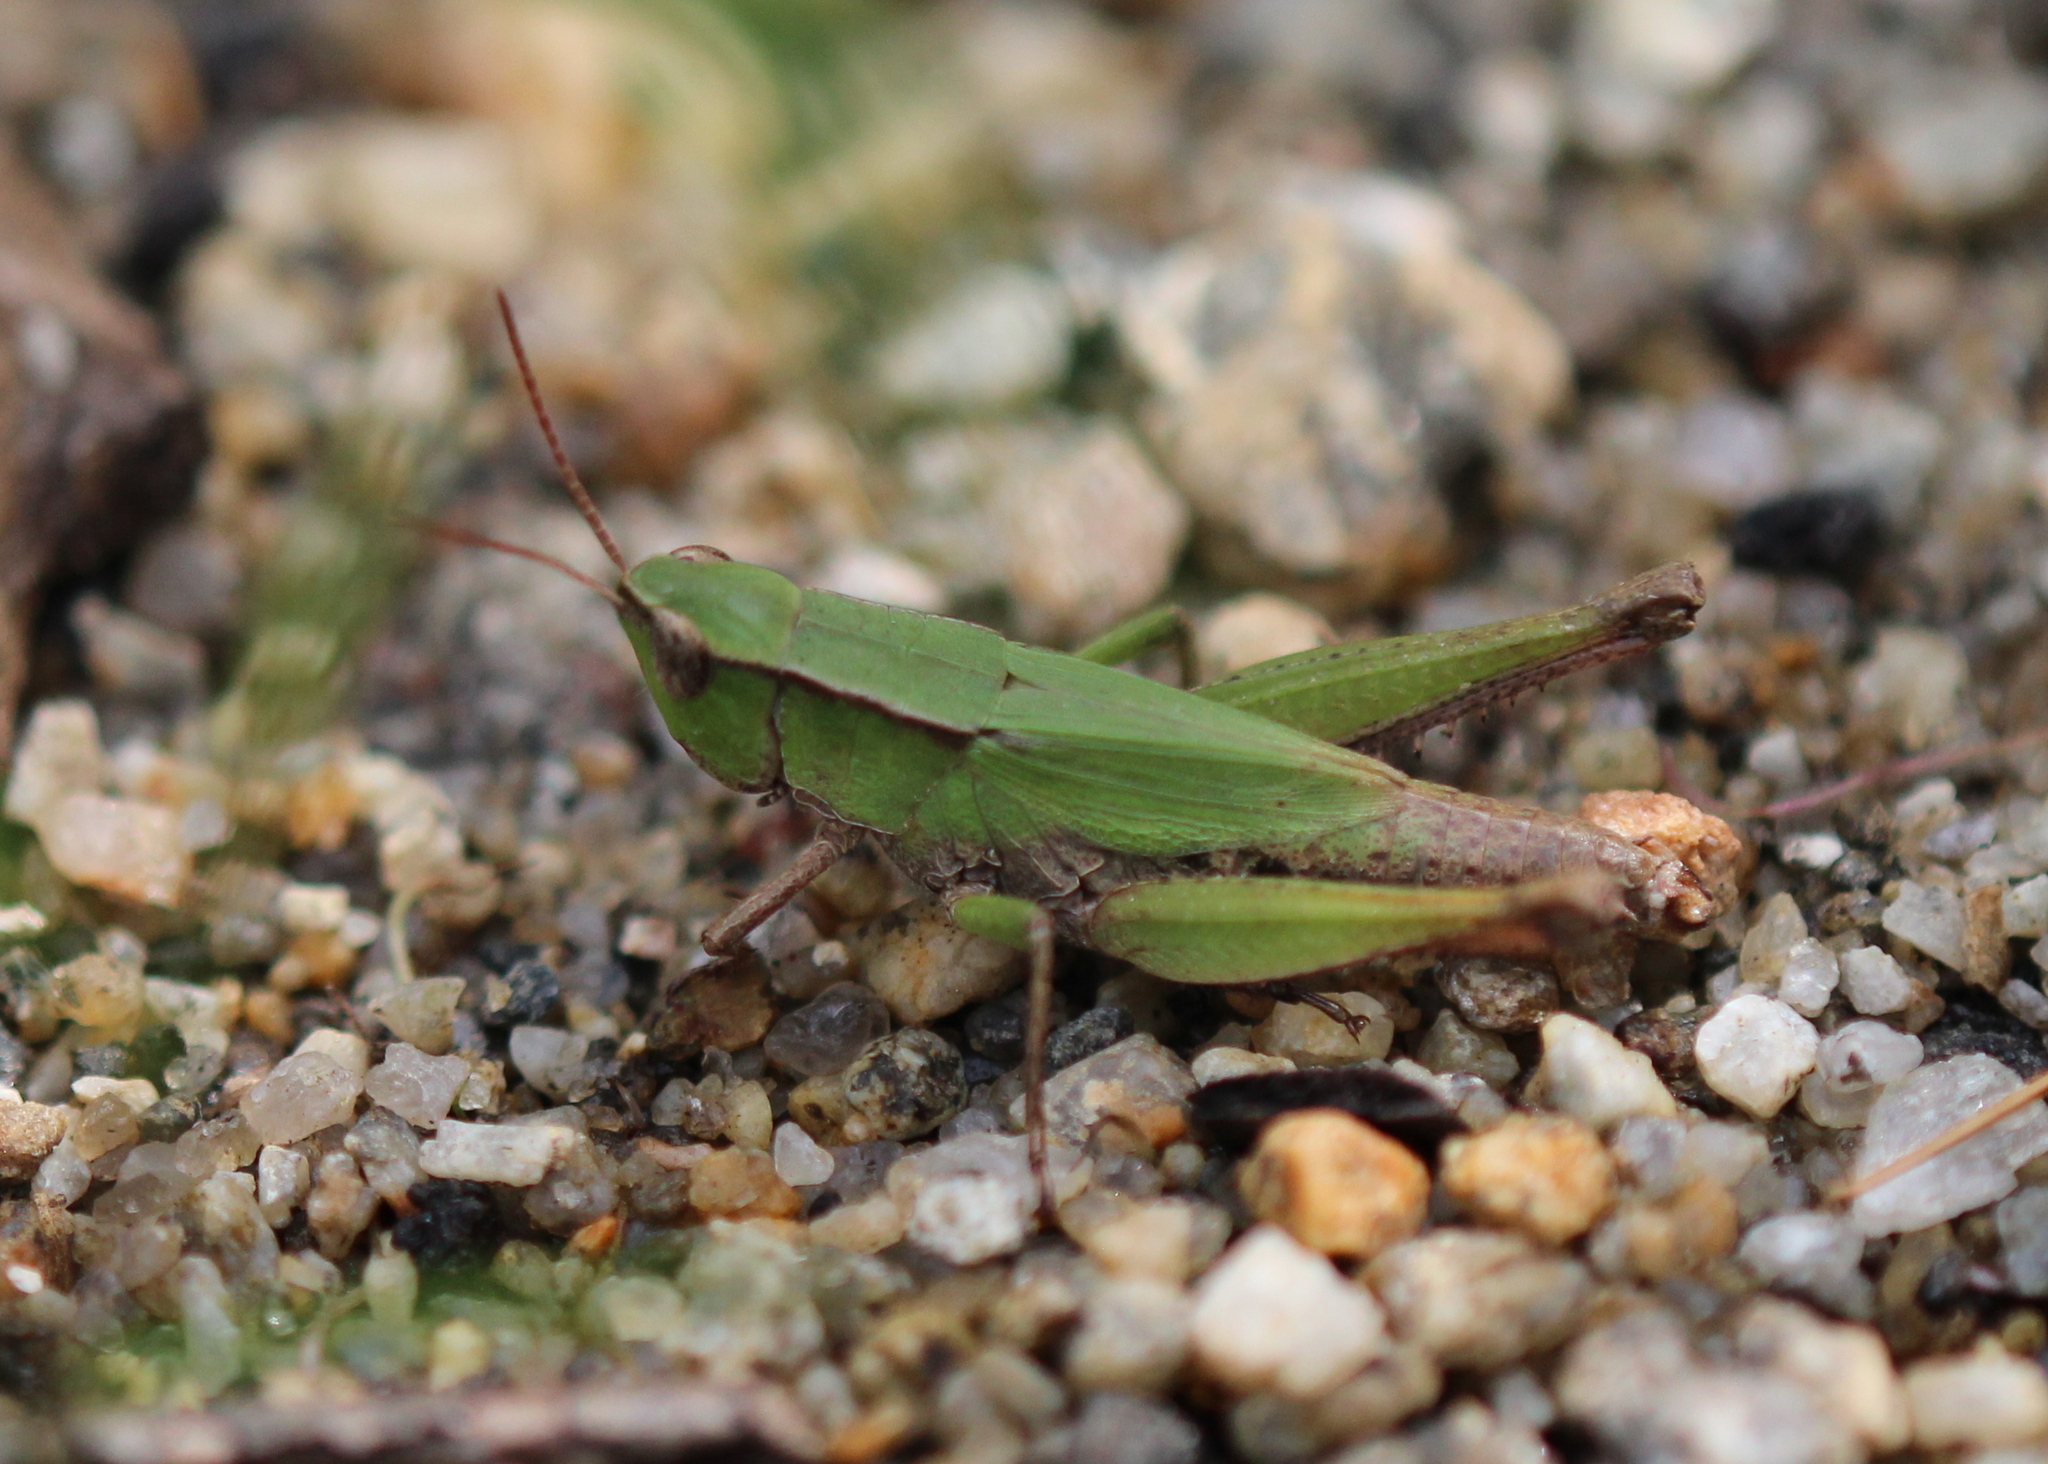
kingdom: Animalia
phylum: Arthropoda
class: Insecta
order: Orthoptera
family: Acrididae
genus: Dichromorpha
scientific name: Dichromorpha viridis
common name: Short-winged green grasshopper
